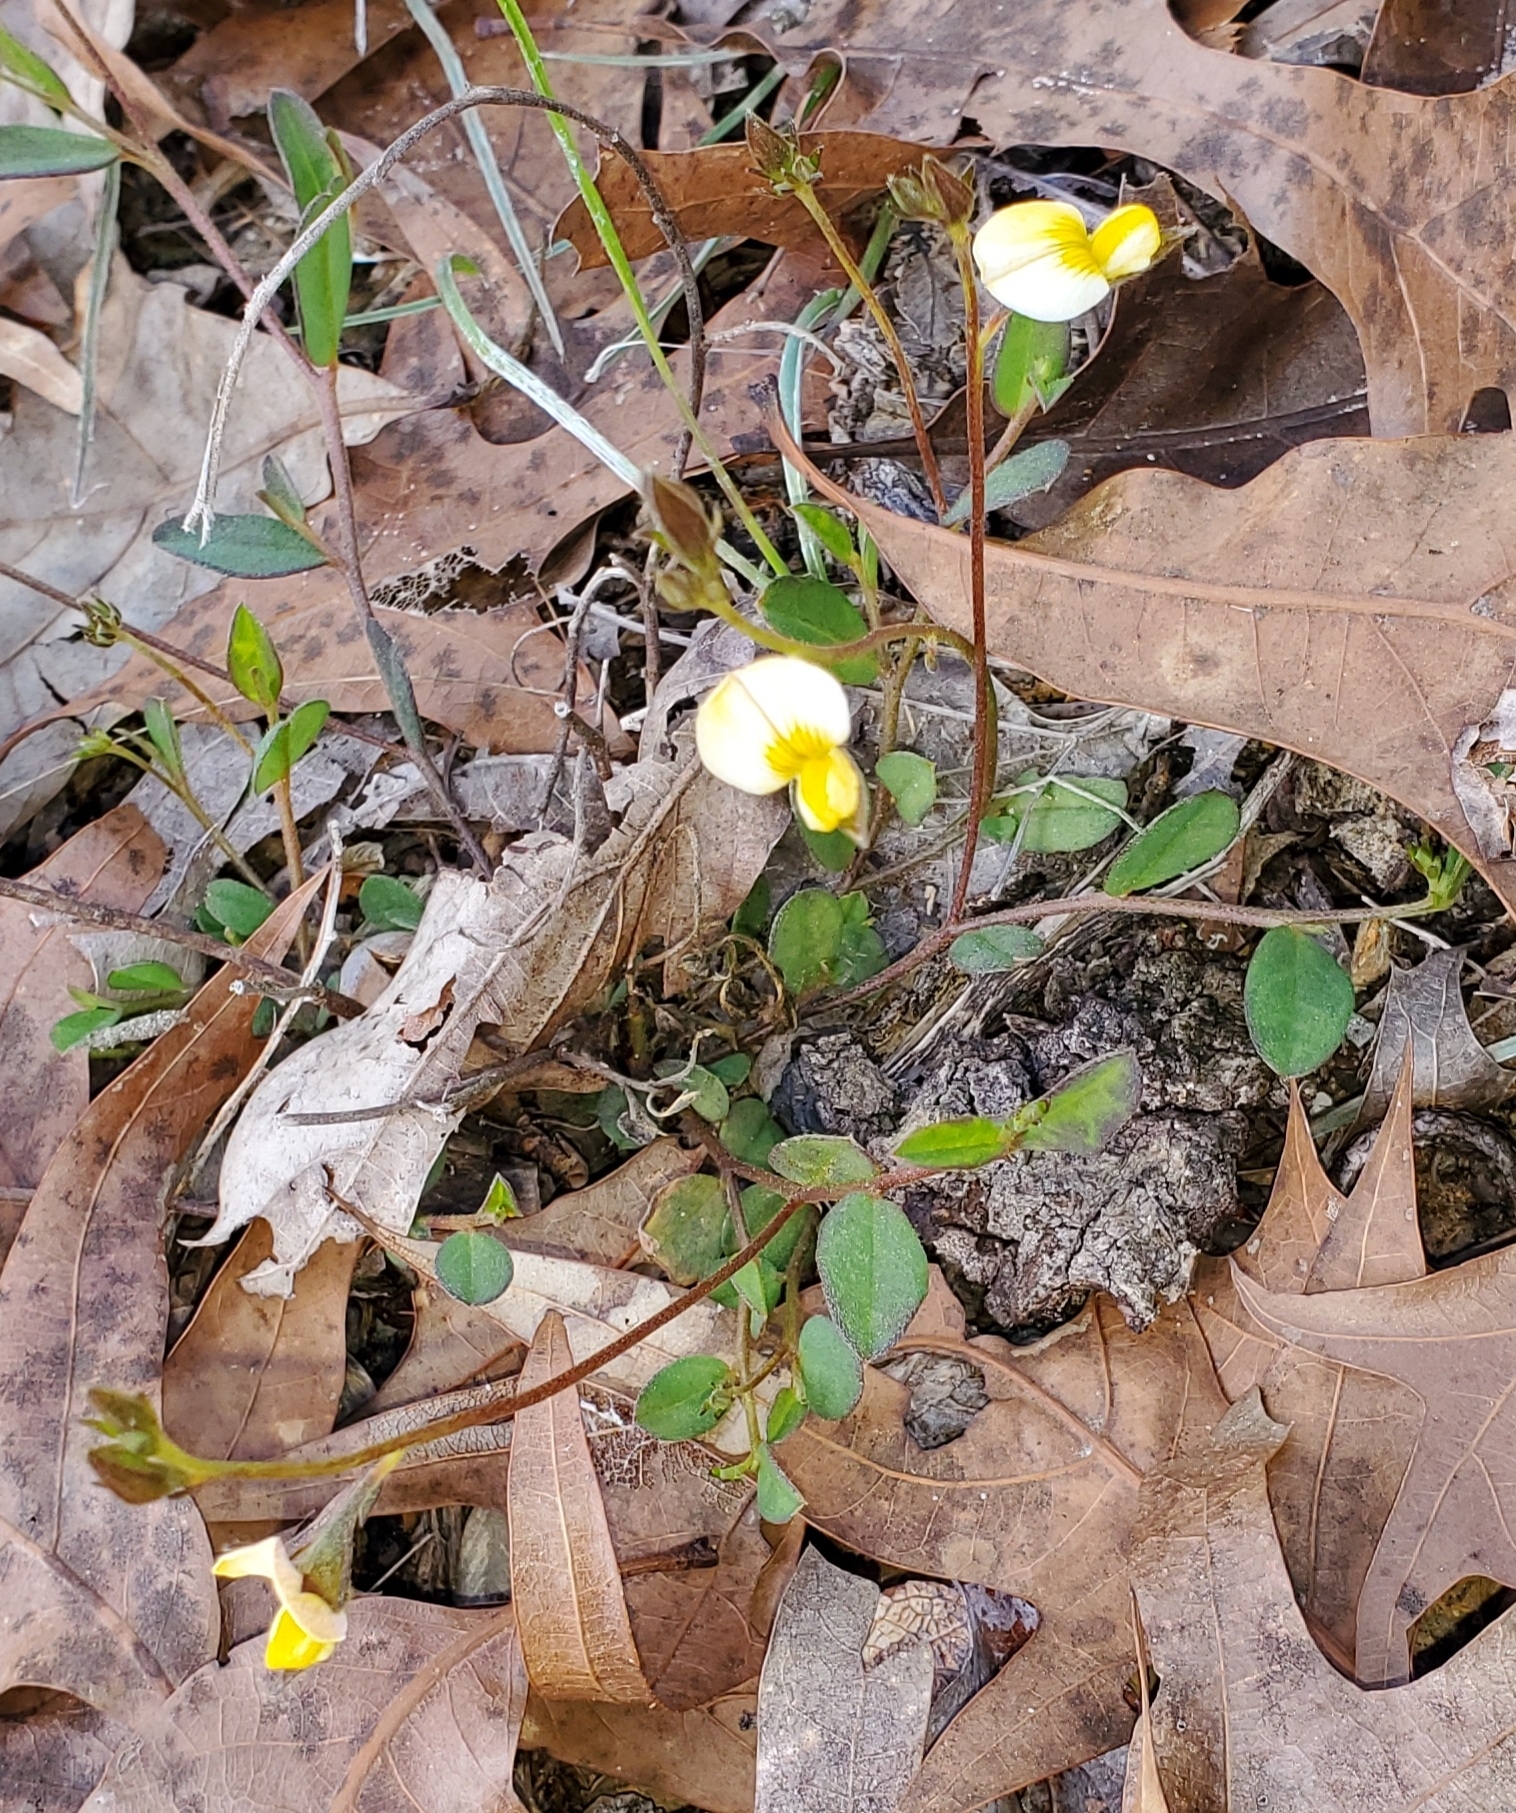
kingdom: Plantae
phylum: Tracheophyta
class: Magnoliopsida
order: Fabales
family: Fabaceae
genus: Crotalaria
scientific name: Crotalaria rotundifolia
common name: Prostrate rattlebox
